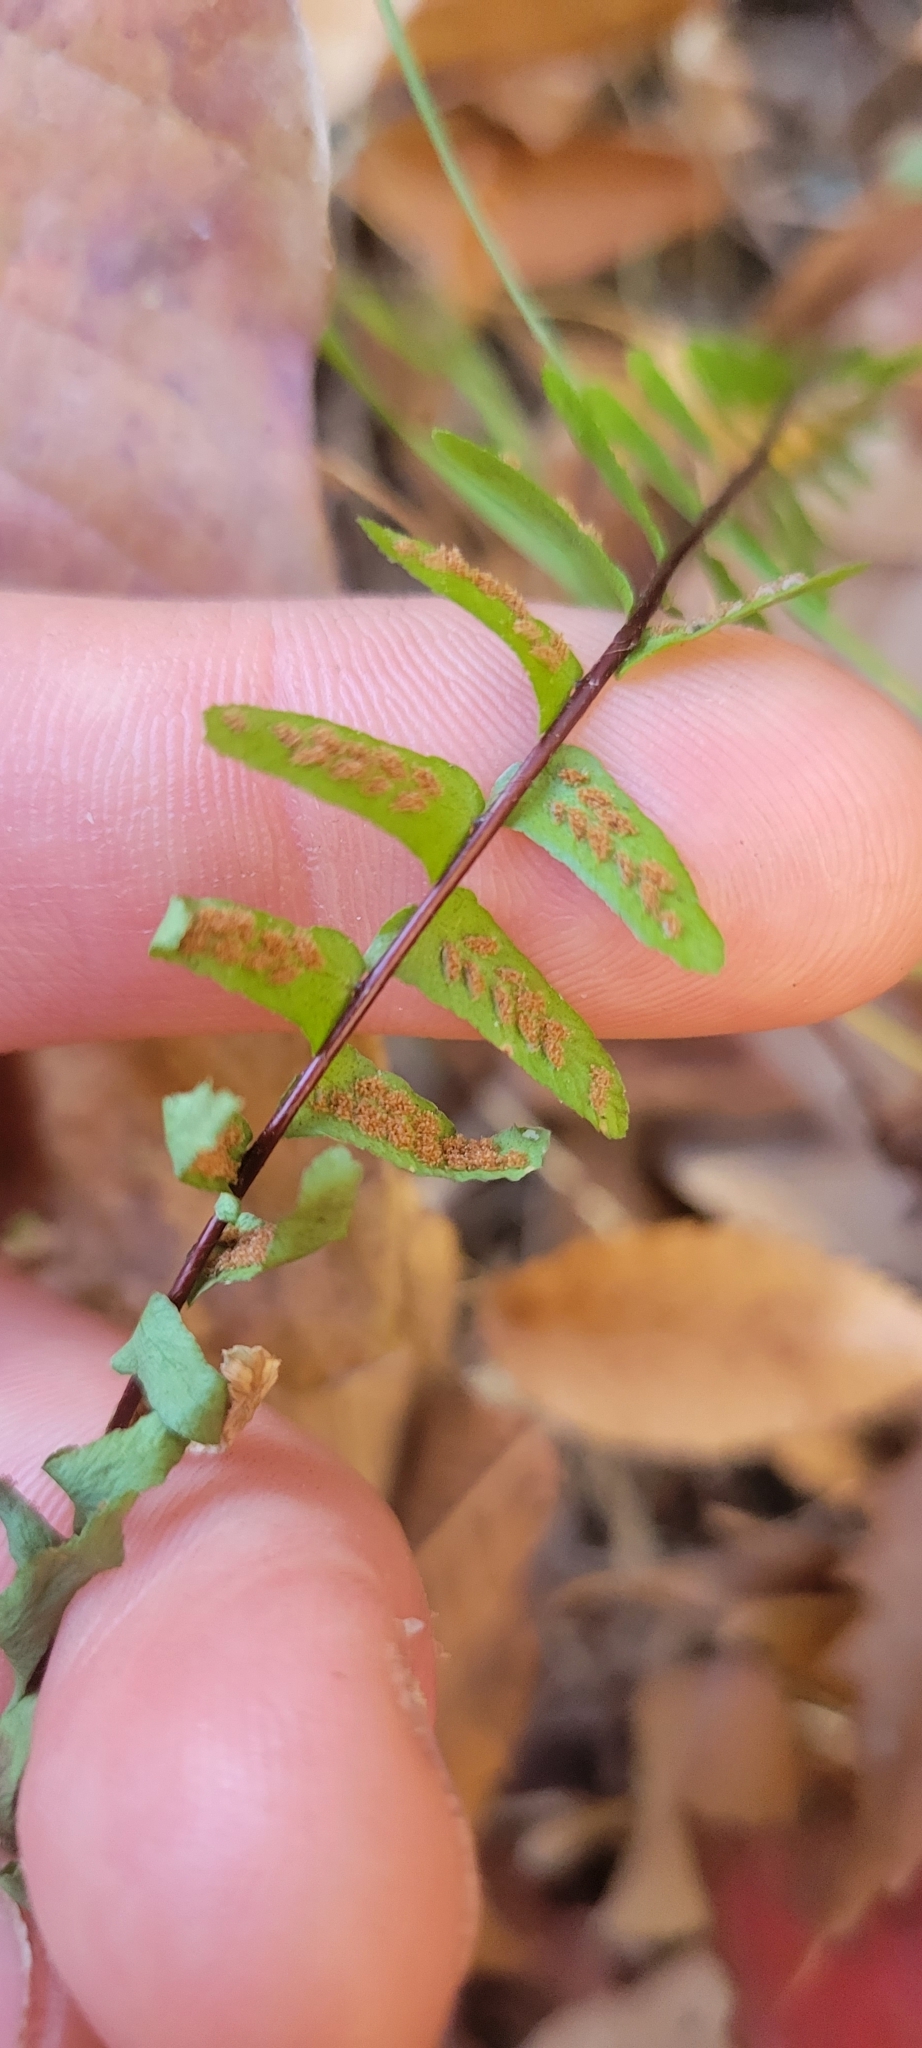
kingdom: Plantae
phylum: Tracheophyta
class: Polypodiopsida
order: Polypodiales
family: Aspleniaceae
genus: Asplenium
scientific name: Asplenium platyneuron
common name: Ebony spleenwort
